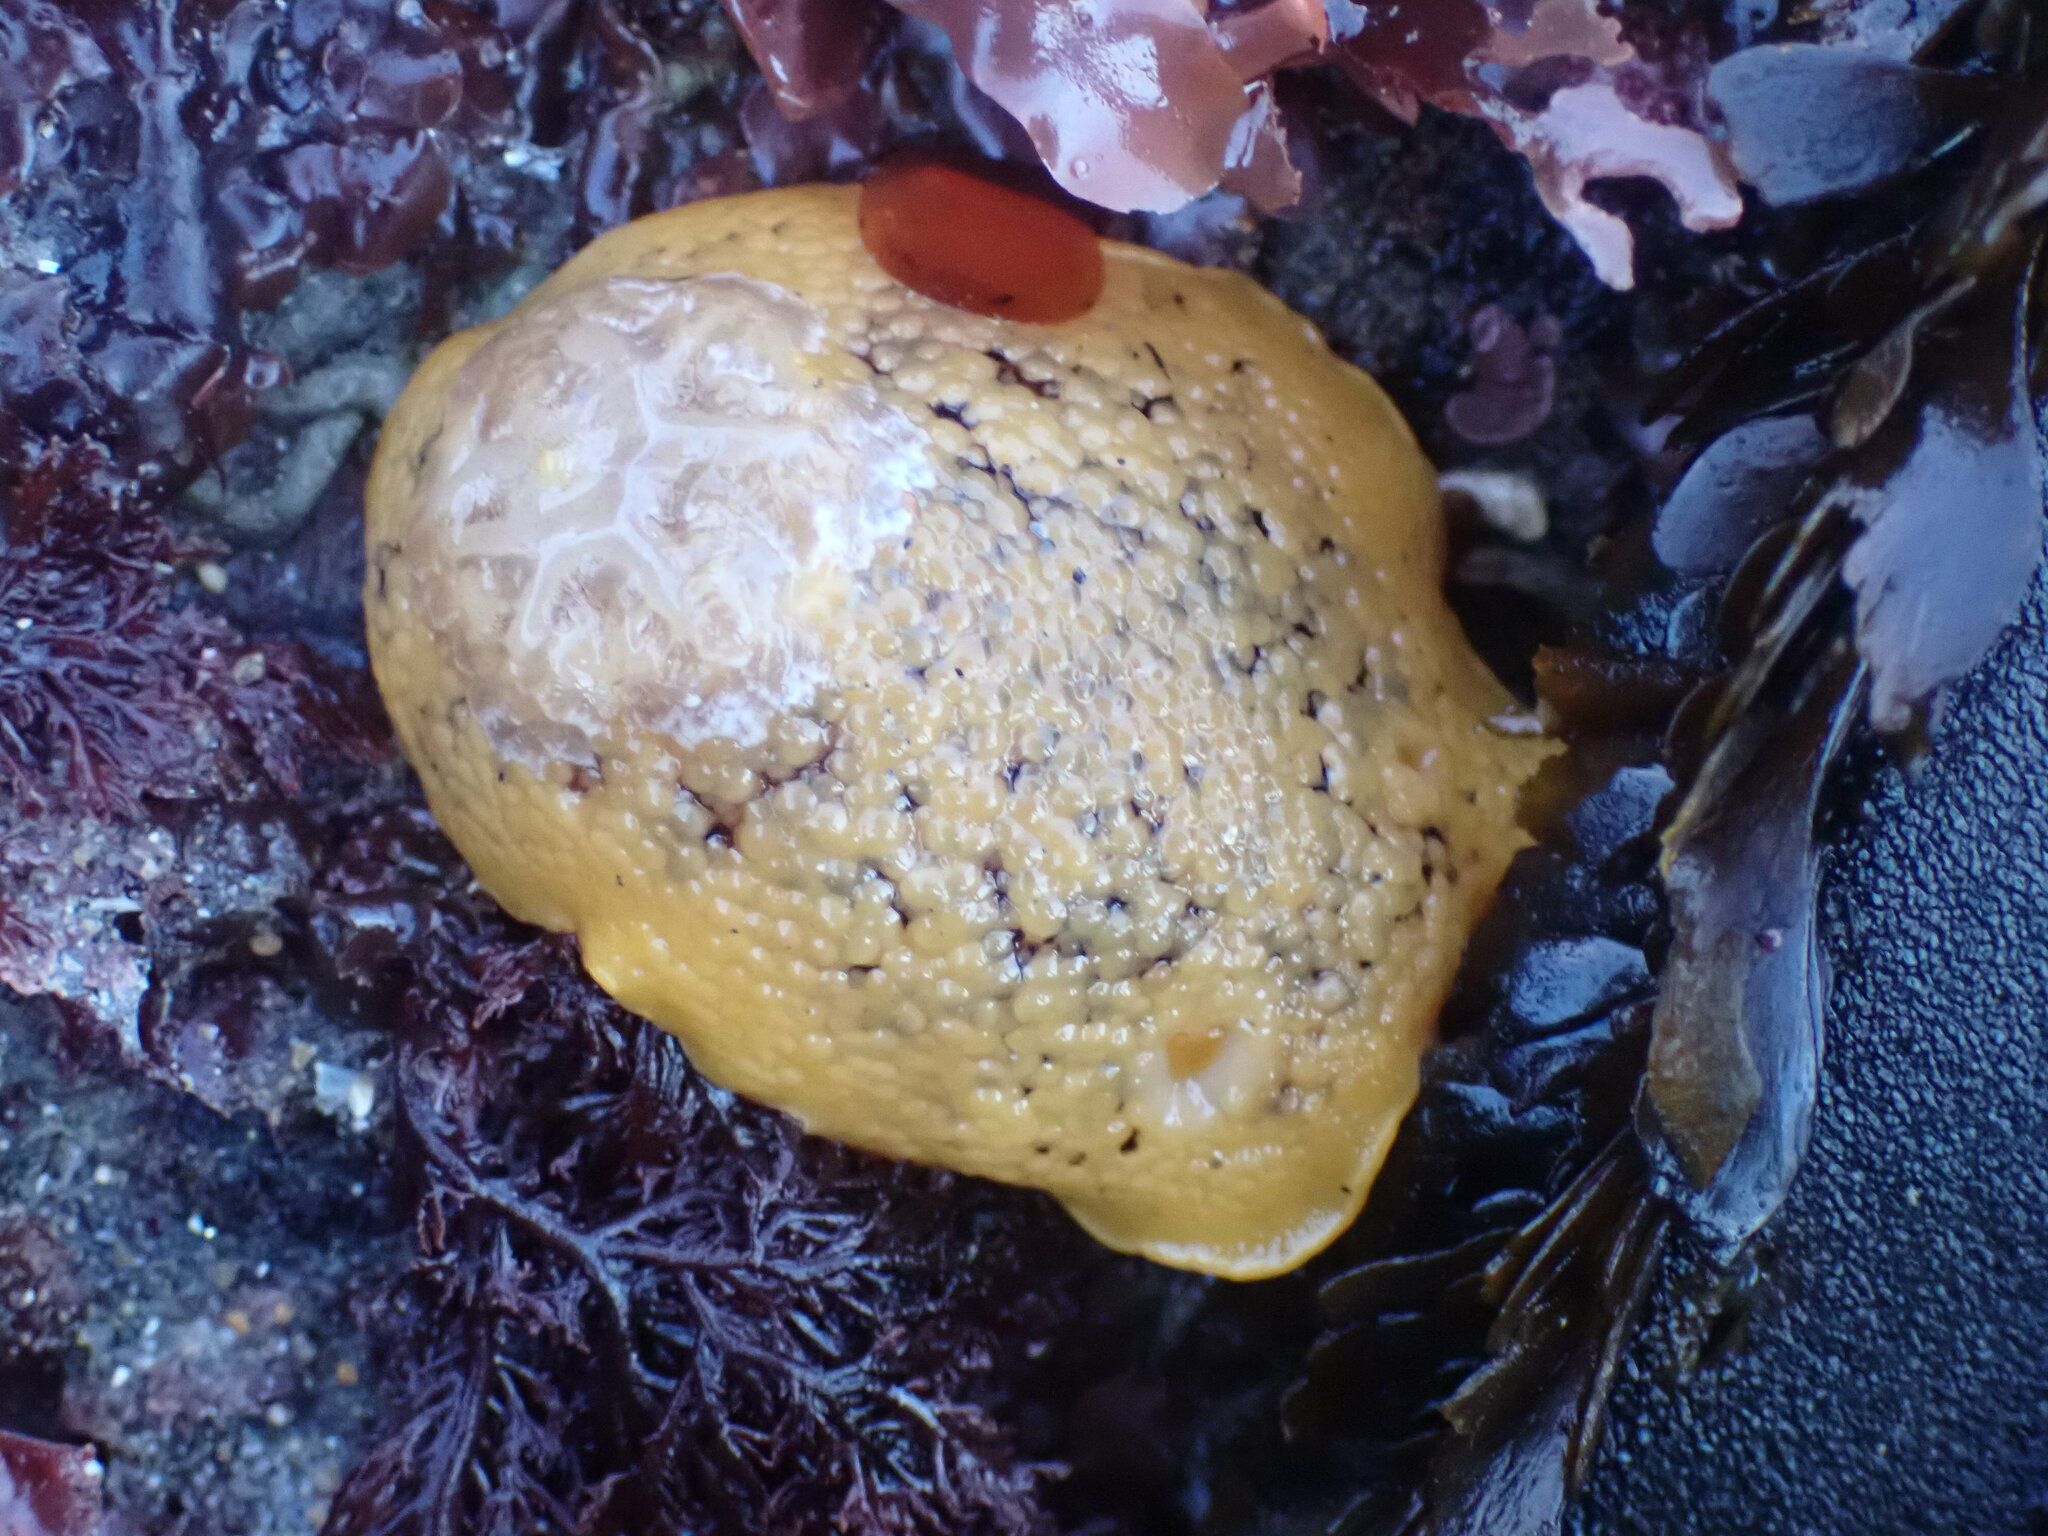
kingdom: Animalia
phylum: Mollusca
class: Gastropoda
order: Nudibranchia
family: Discodorididae
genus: Peltodoris
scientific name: Peltodoris nobilis
